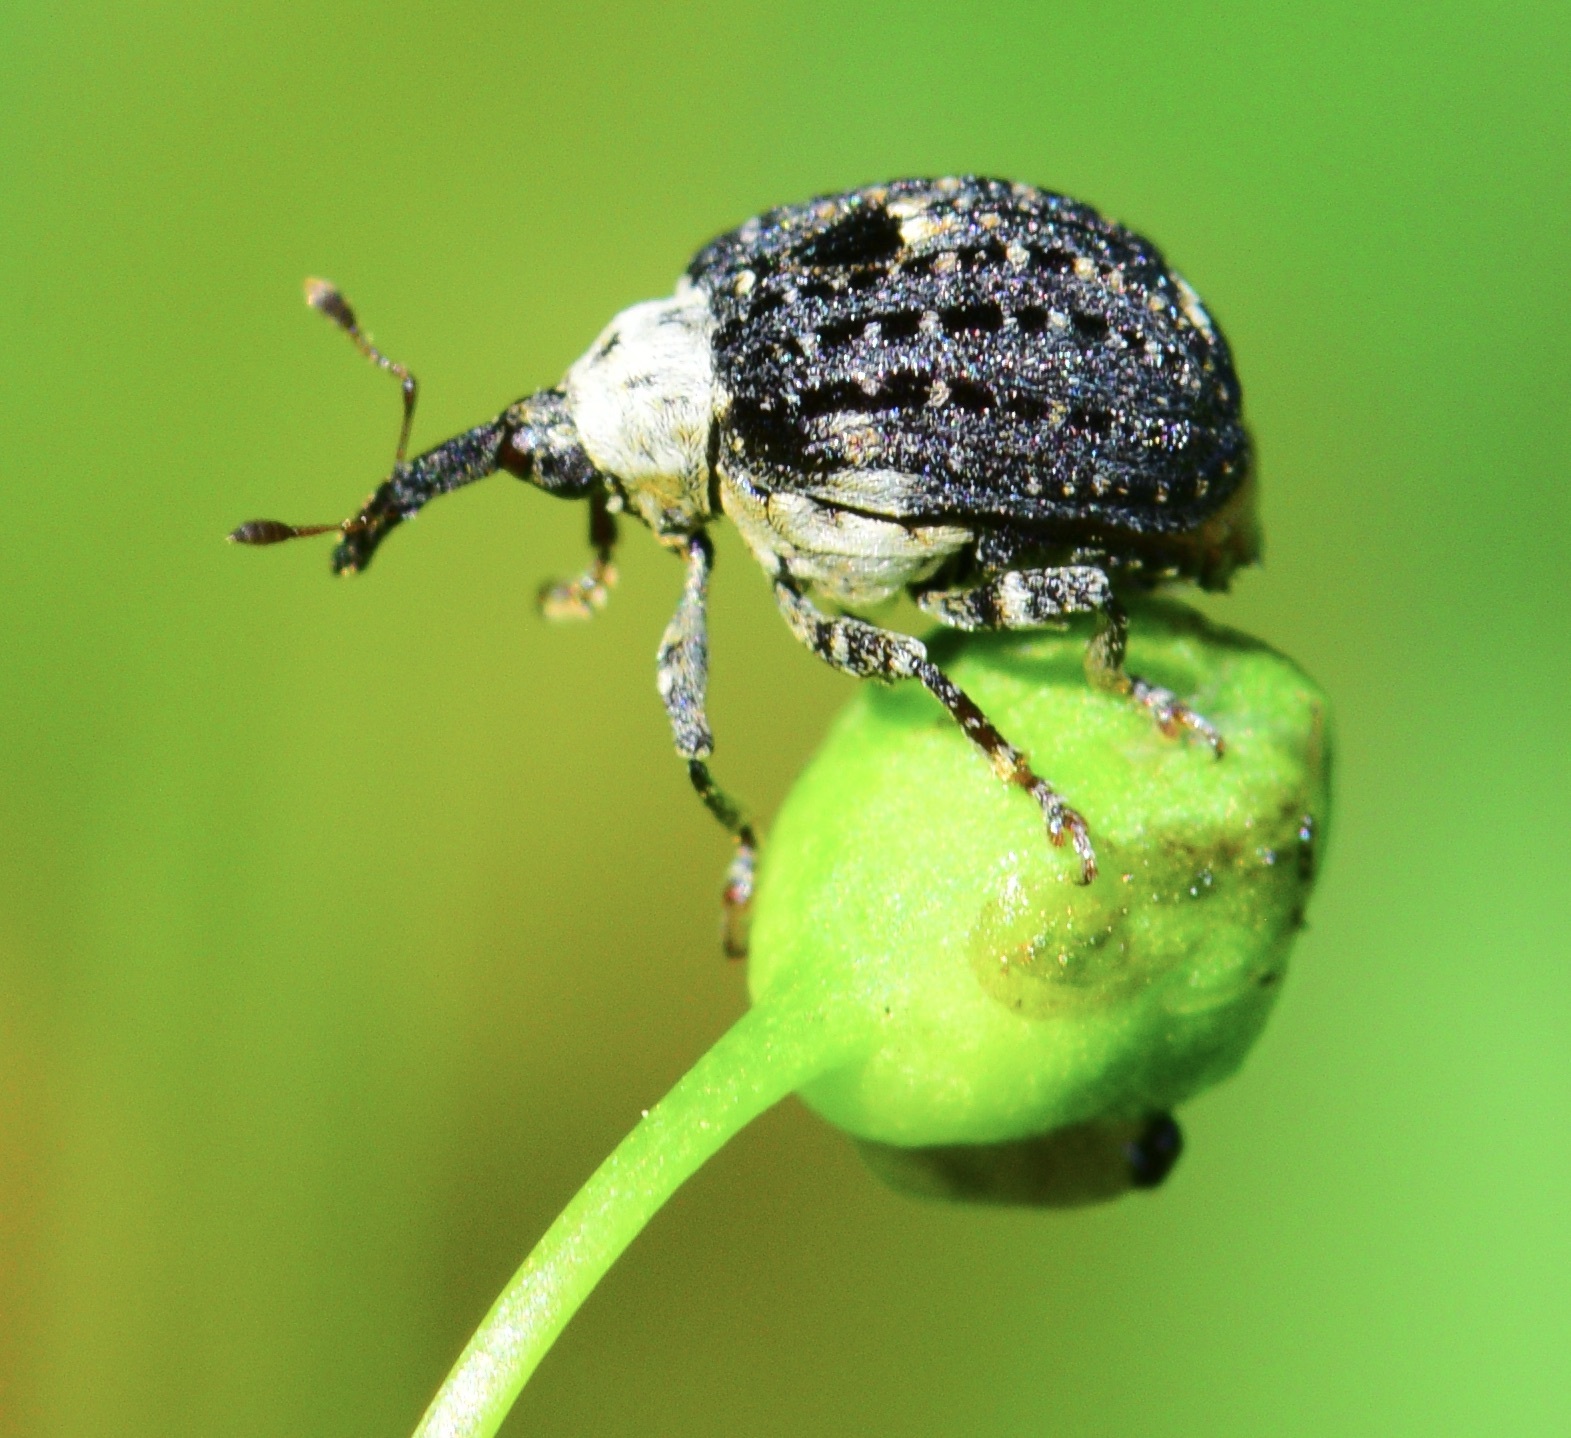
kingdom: Animalia
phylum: Arthropoda
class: Insecta
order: Coleoptera
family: Curculionidae
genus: Cionus
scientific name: Cionus scrophulariae
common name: Common figwort weevil
